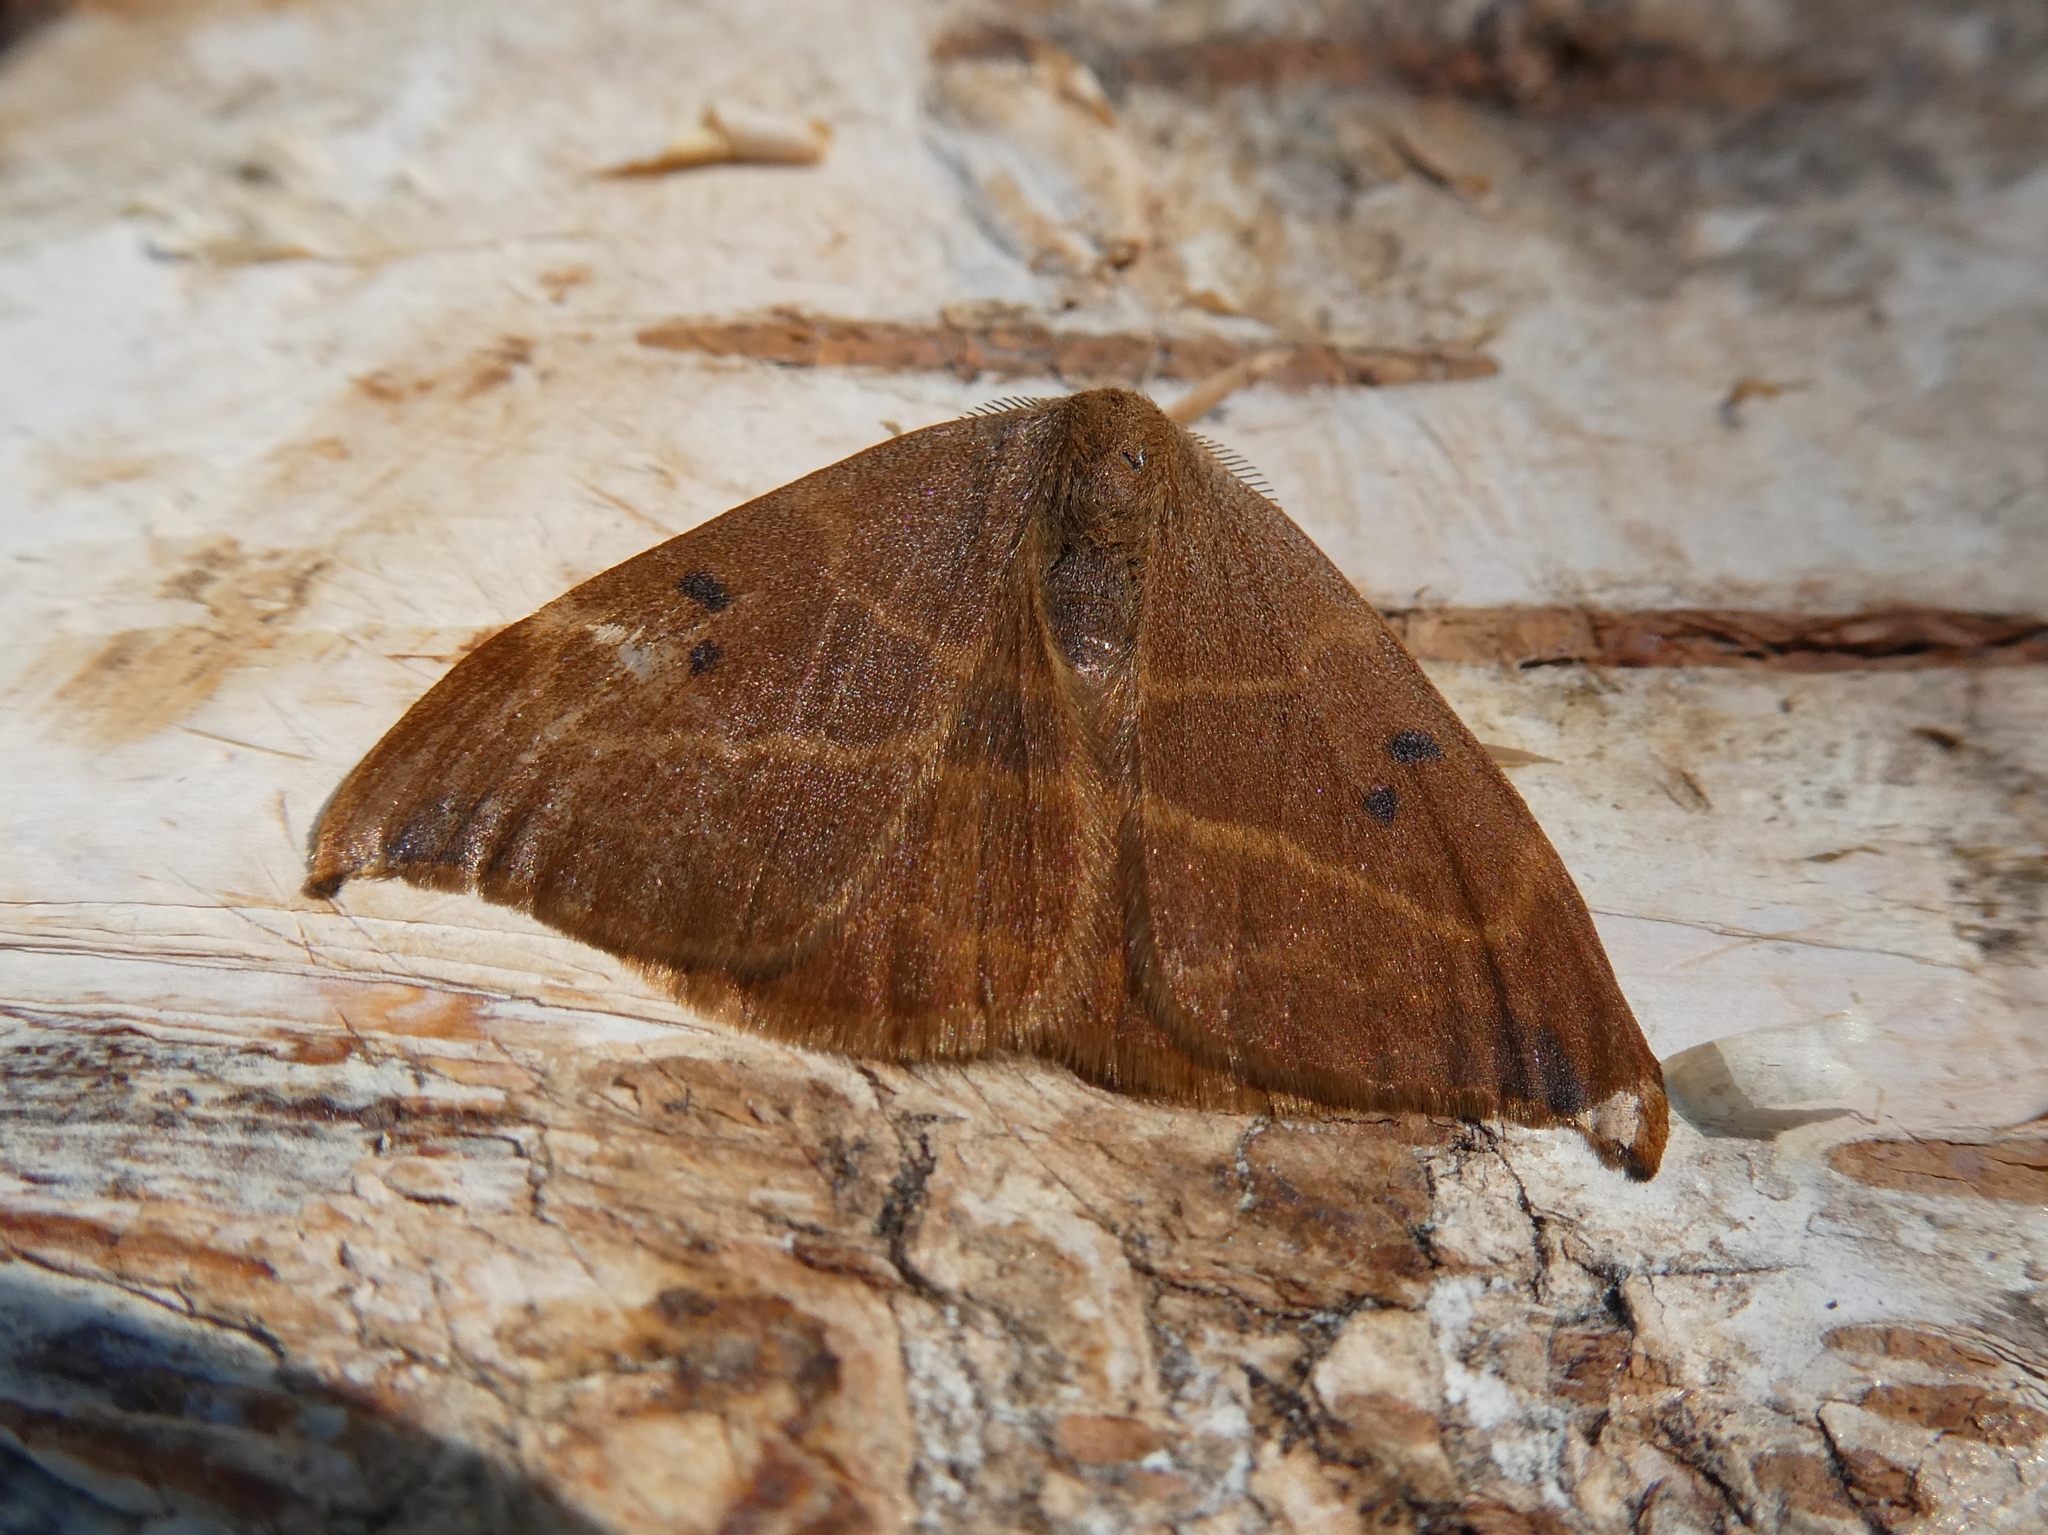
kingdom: Animalia
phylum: Arthropoda
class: Insecta
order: Lepidoptera
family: Drepanidae
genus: Watsonalla
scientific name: Watsonalla binaria
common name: Oak hook-tip
